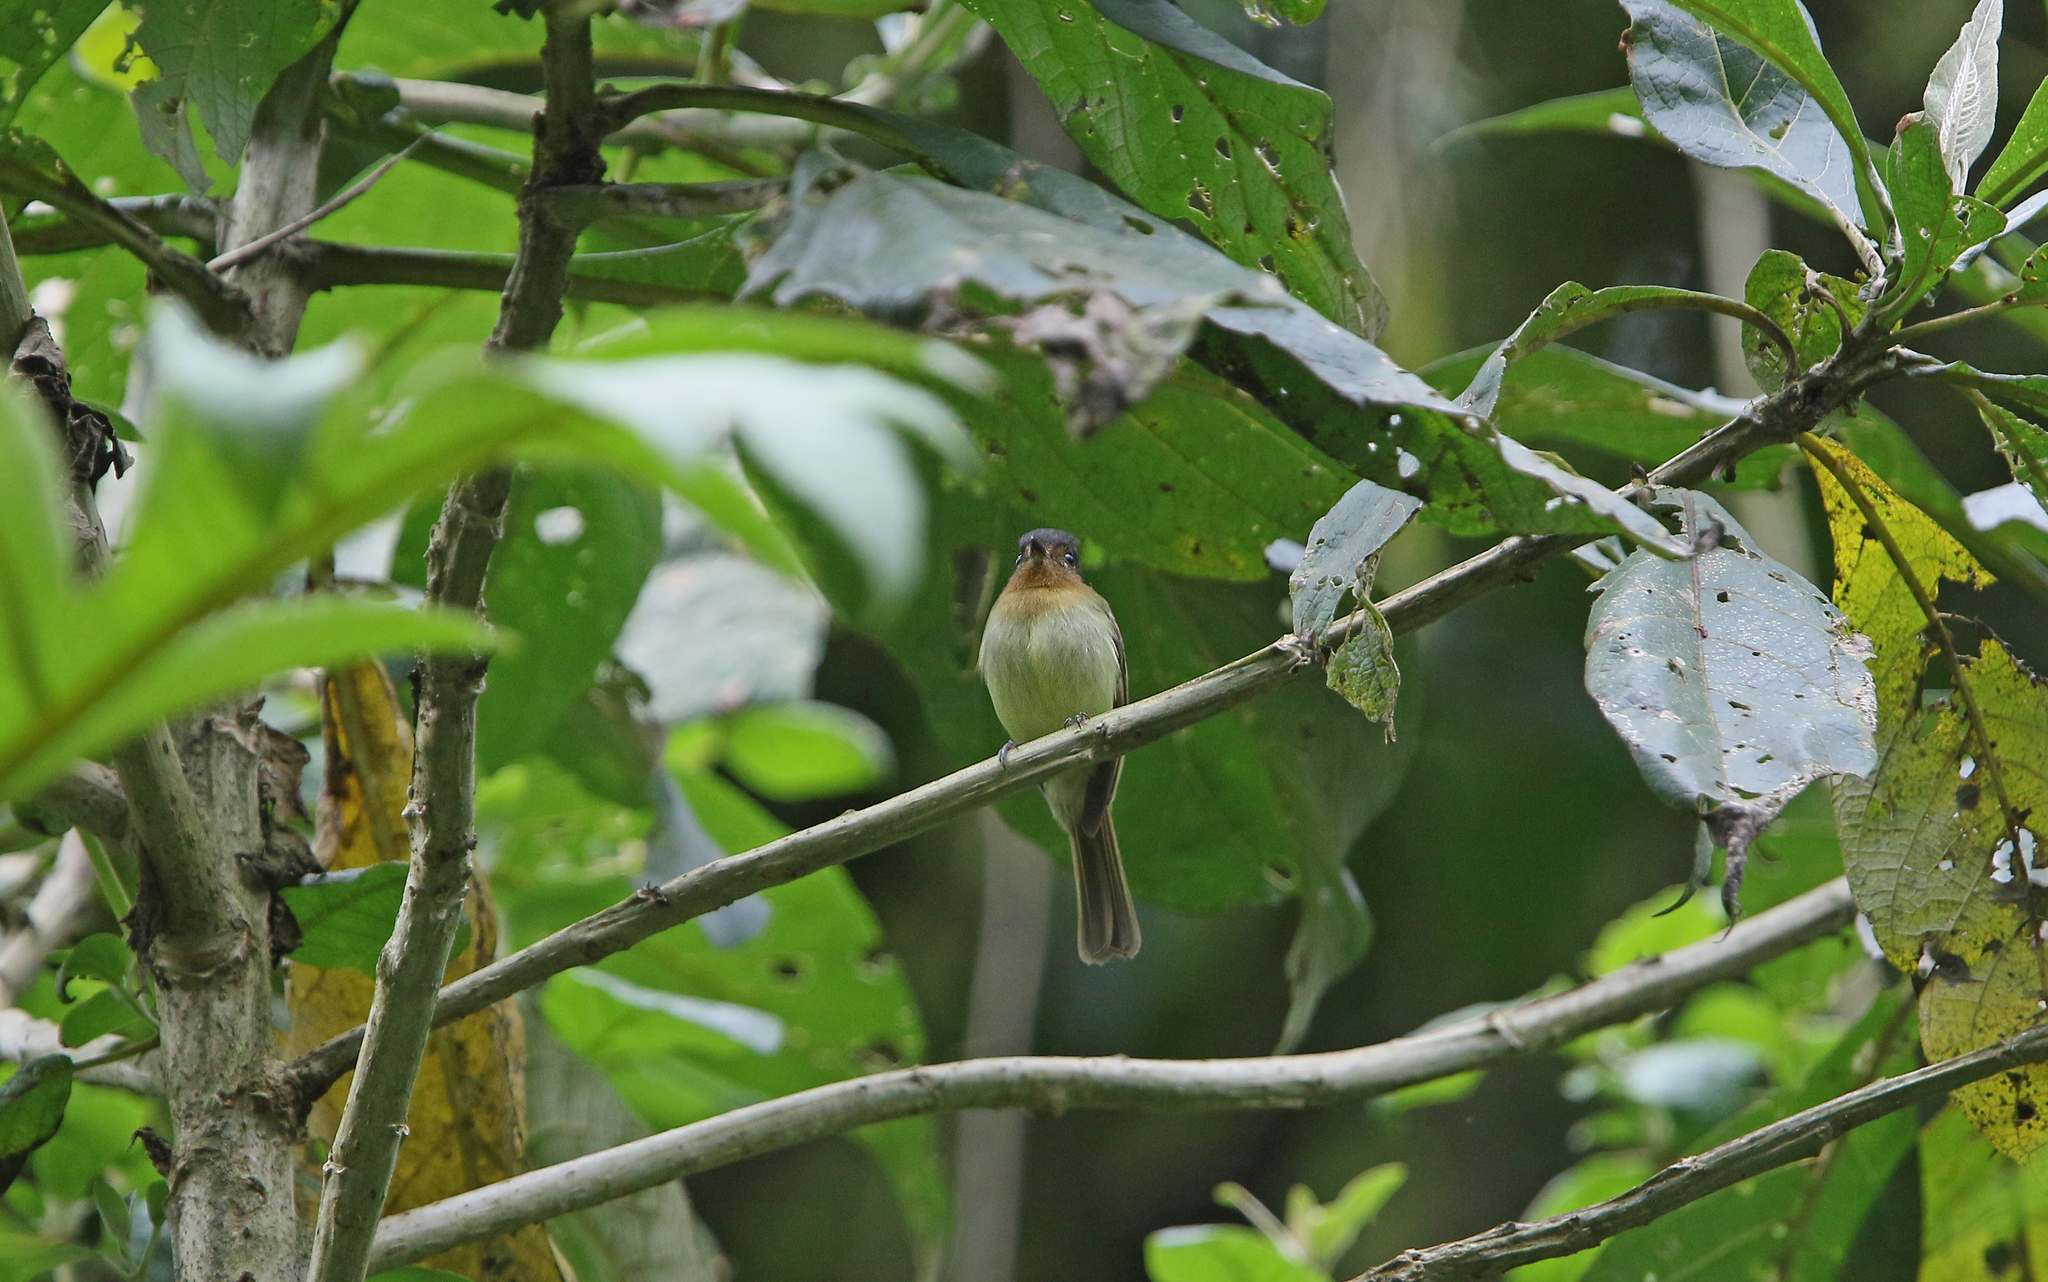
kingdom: Animalia
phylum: Chordata
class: Aves
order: Passeriformes
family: Tyrannidae
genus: Leptopogon
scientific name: Leptopogon rufipectus
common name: Rufous-breasted flycatcher
